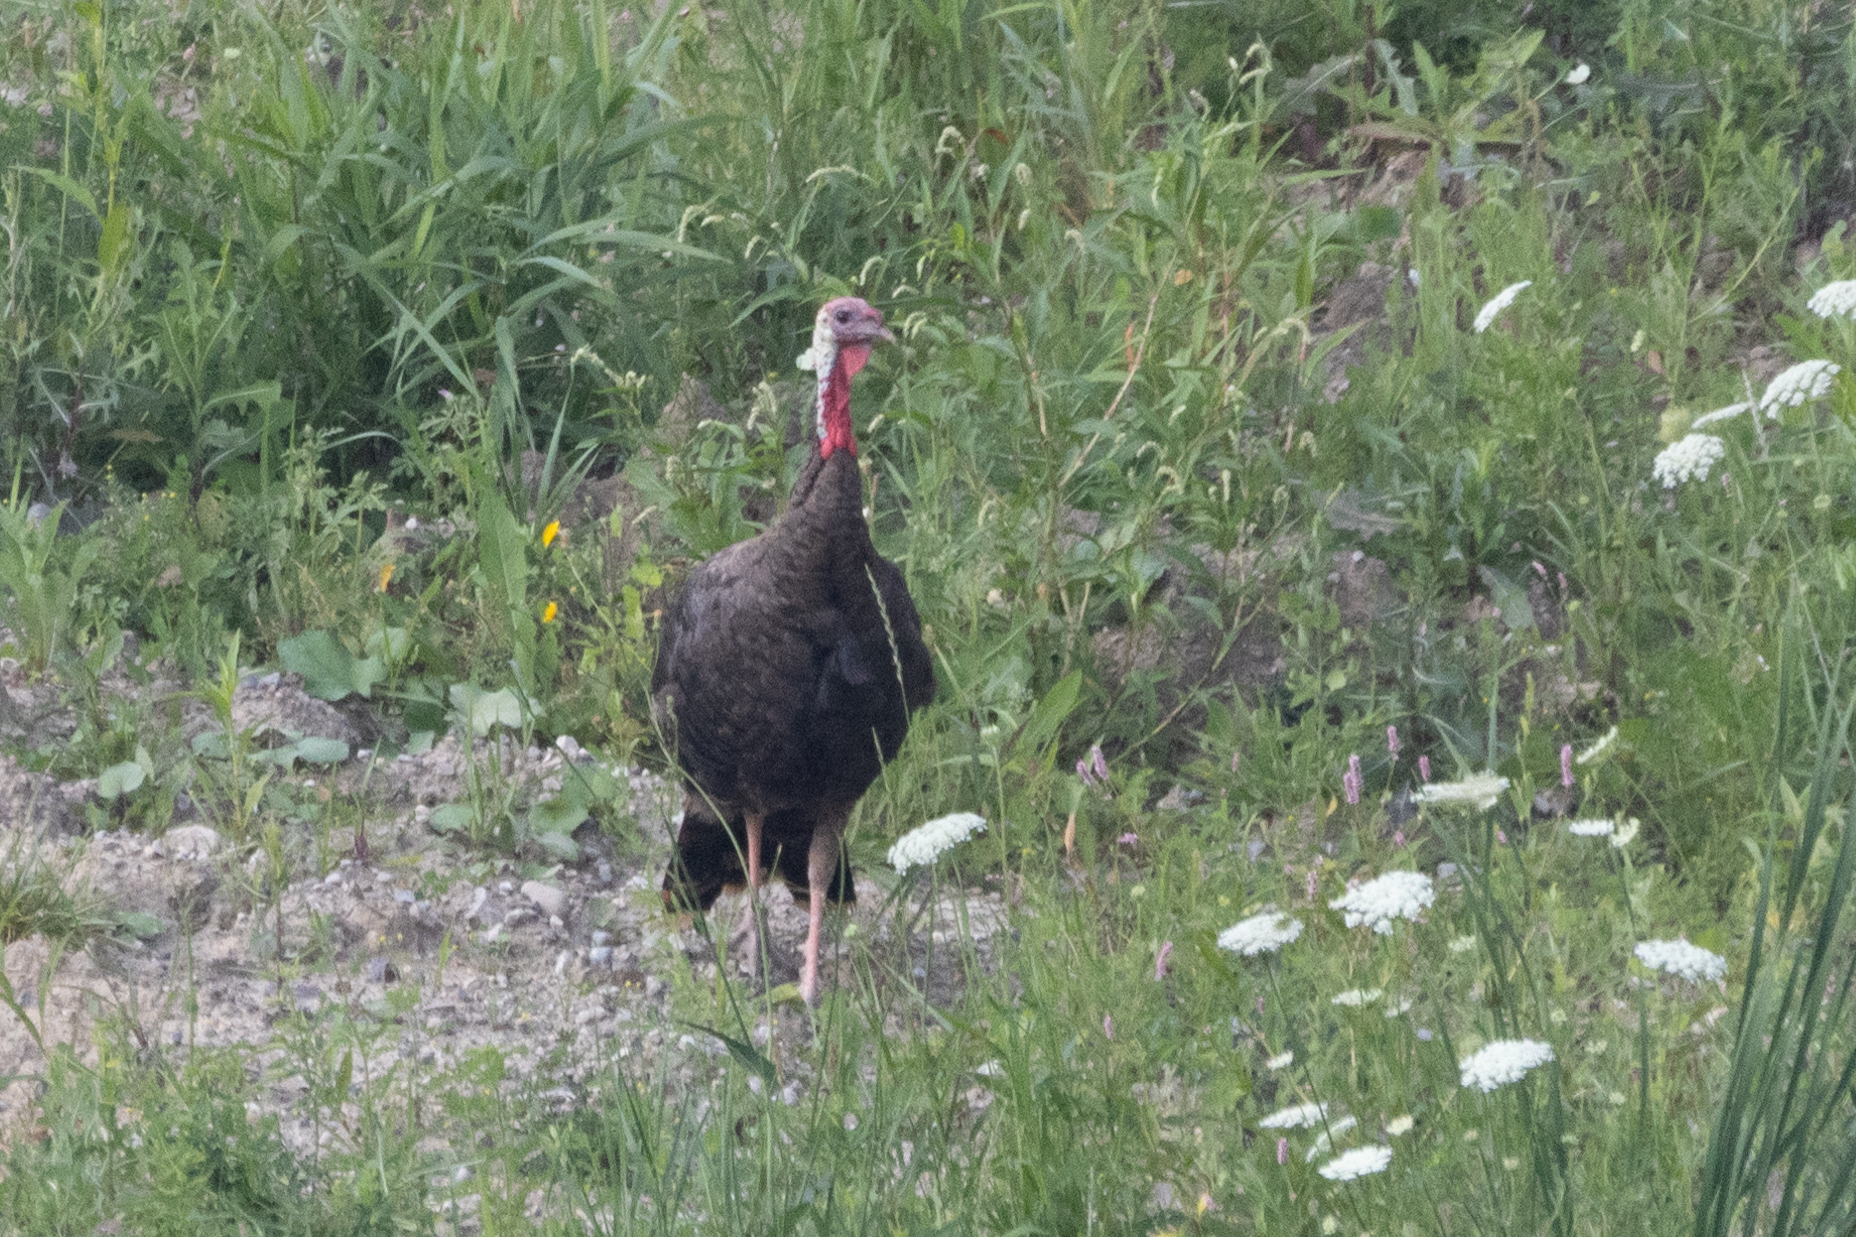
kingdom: Animalia
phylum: Chordata
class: Aves
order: Galliformes
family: Phasianidae
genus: Meleagris
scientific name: Meleagris gallopavo
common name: Wild turkey
